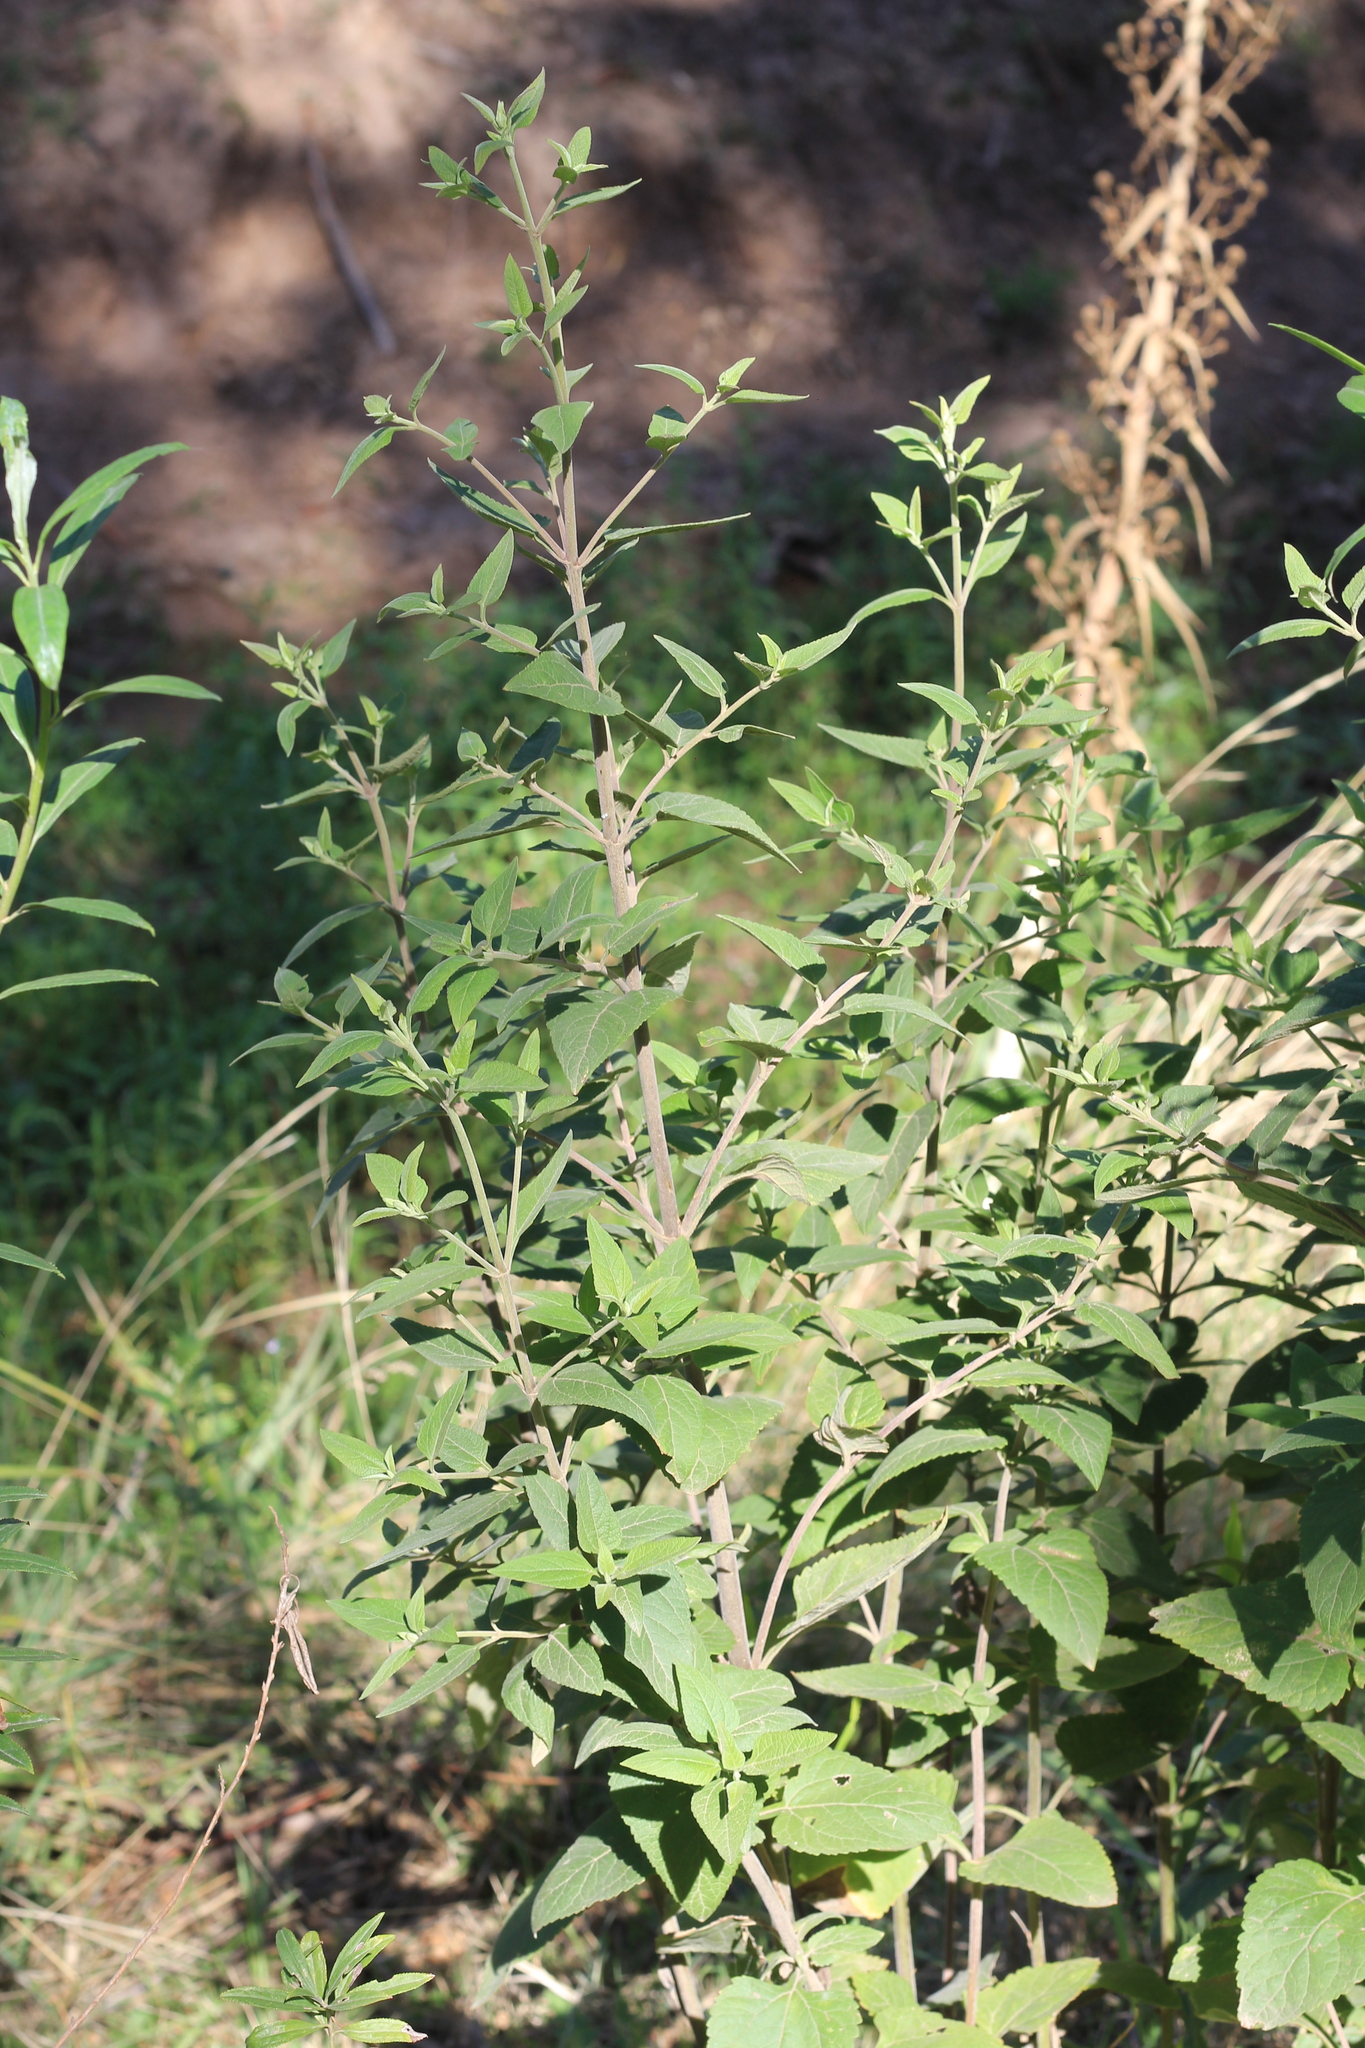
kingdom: Plantae
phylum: Tracheophyta
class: Magnoliopsida
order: Asterales
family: Asteraceae
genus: Austroeupatorium
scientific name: Austroeupatorium inulifolium
